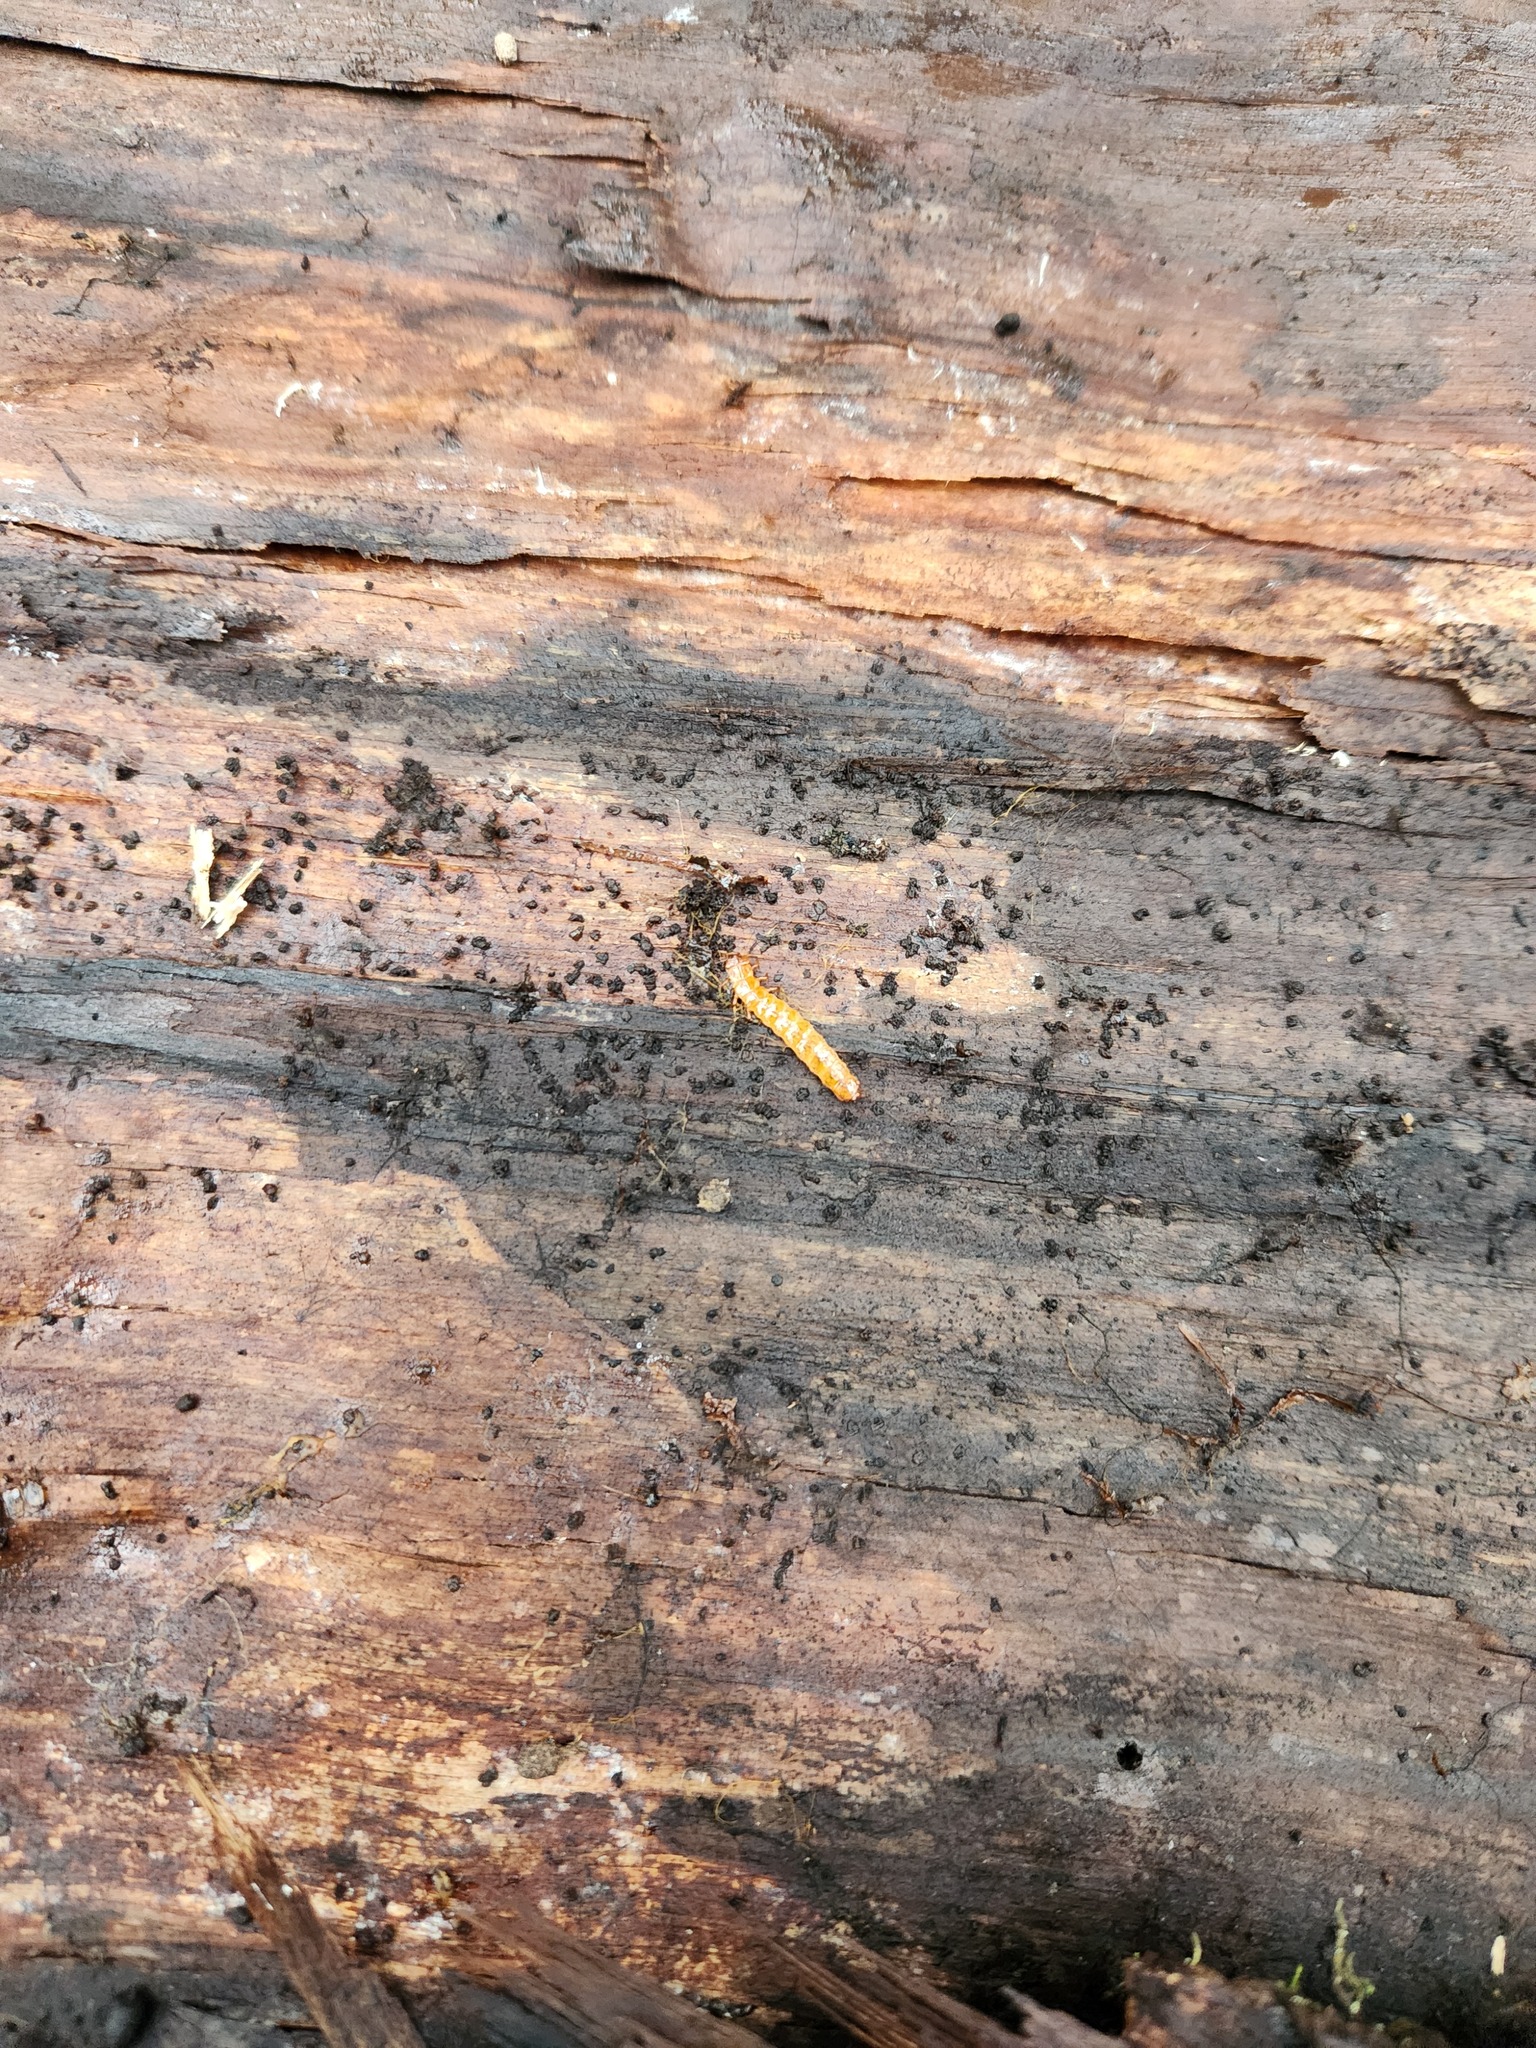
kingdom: Animalia
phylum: Arthropoda
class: Insecta
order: Coleoptera
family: Cucujidae
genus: Cucujus
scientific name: Cucujus clavipes
